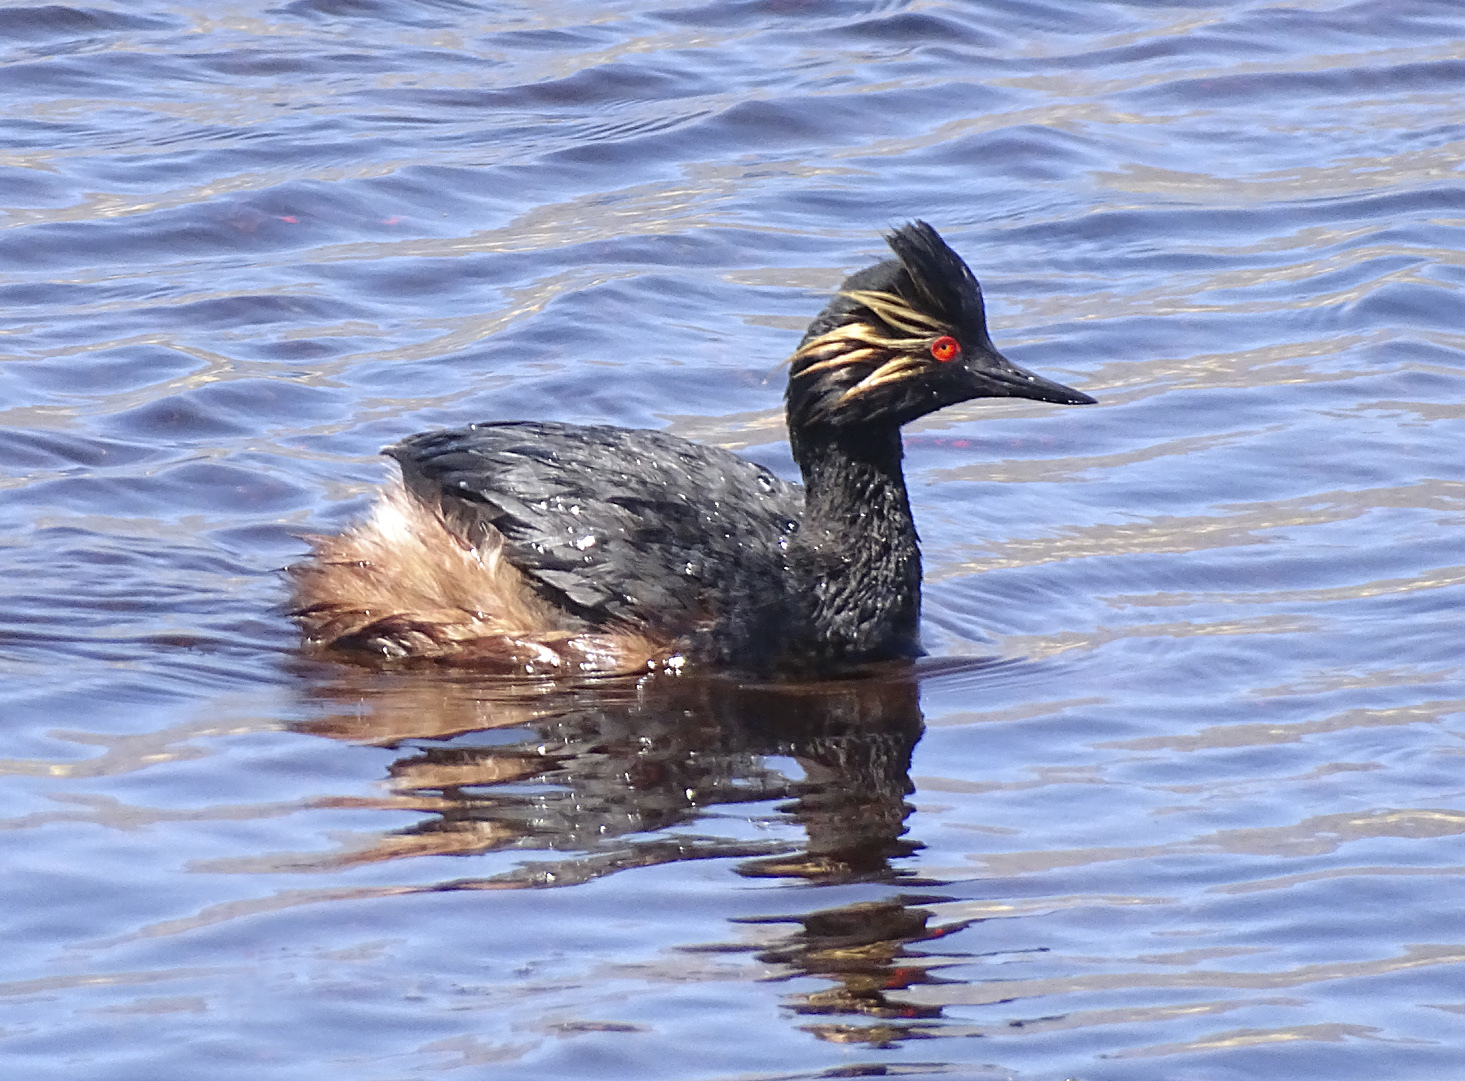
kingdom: Animalia
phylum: Chordata
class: Aves
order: Podicipediformes
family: Podicipedidae
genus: Podiceps
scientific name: Podiceps nigricollis
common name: Black-necked grebe
